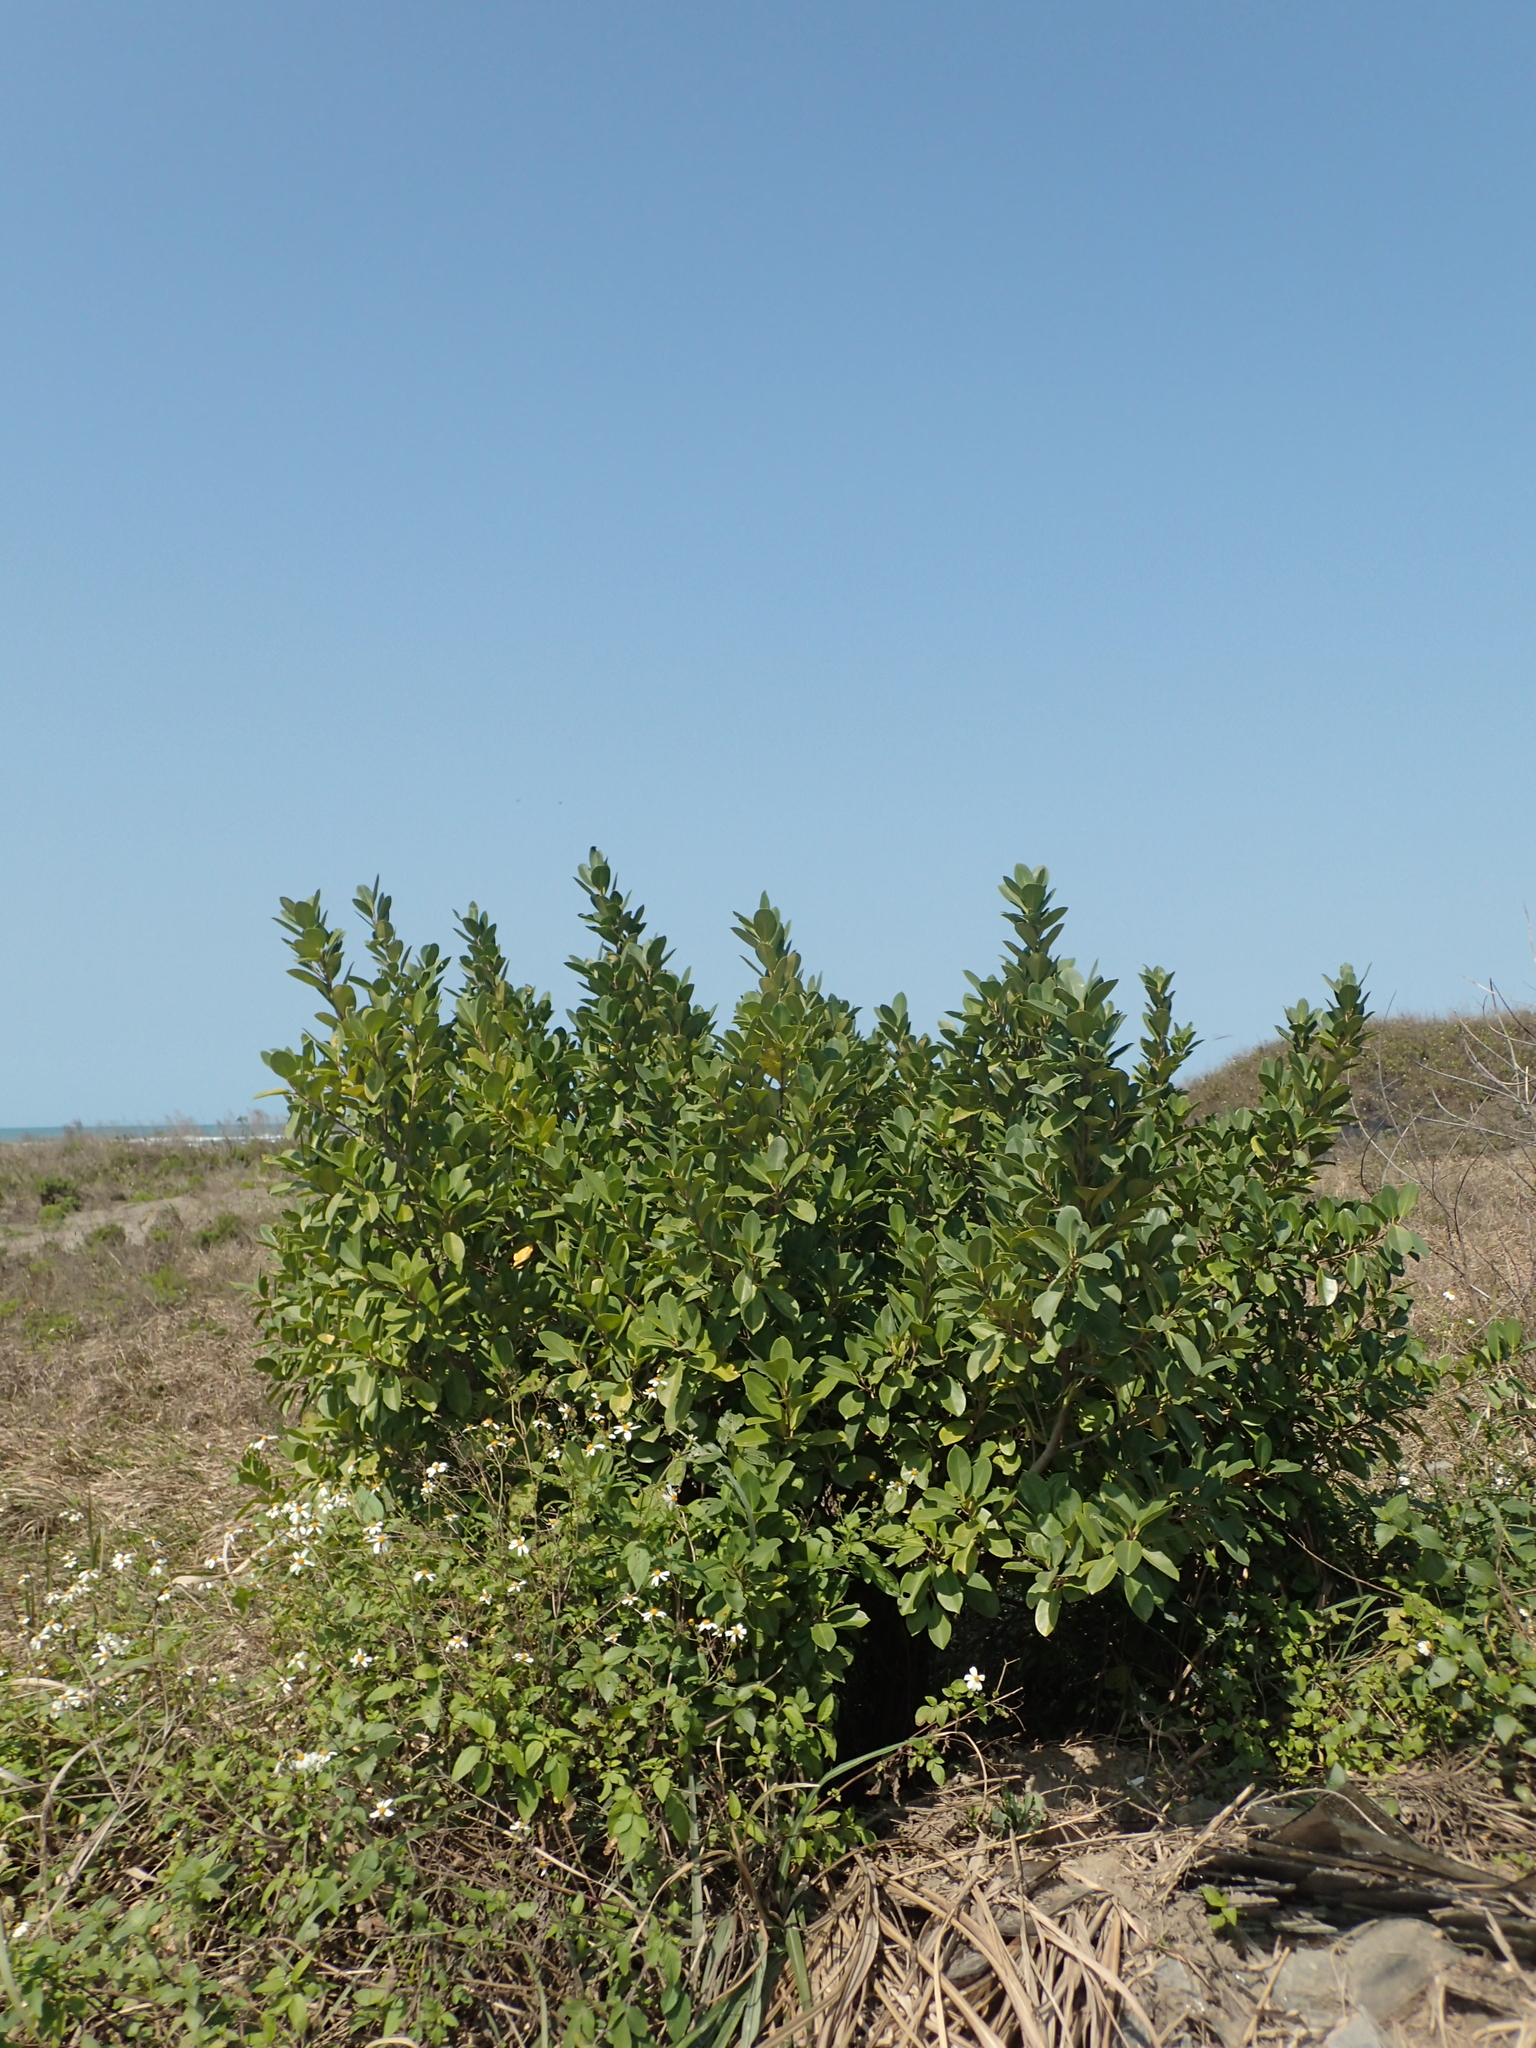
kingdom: Plantae
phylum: Tracheophyta
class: Magnoliopsida
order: Rosales
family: Moraceae
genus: Ficus
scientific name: Ficus microcarpa
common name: Chinese banyan
